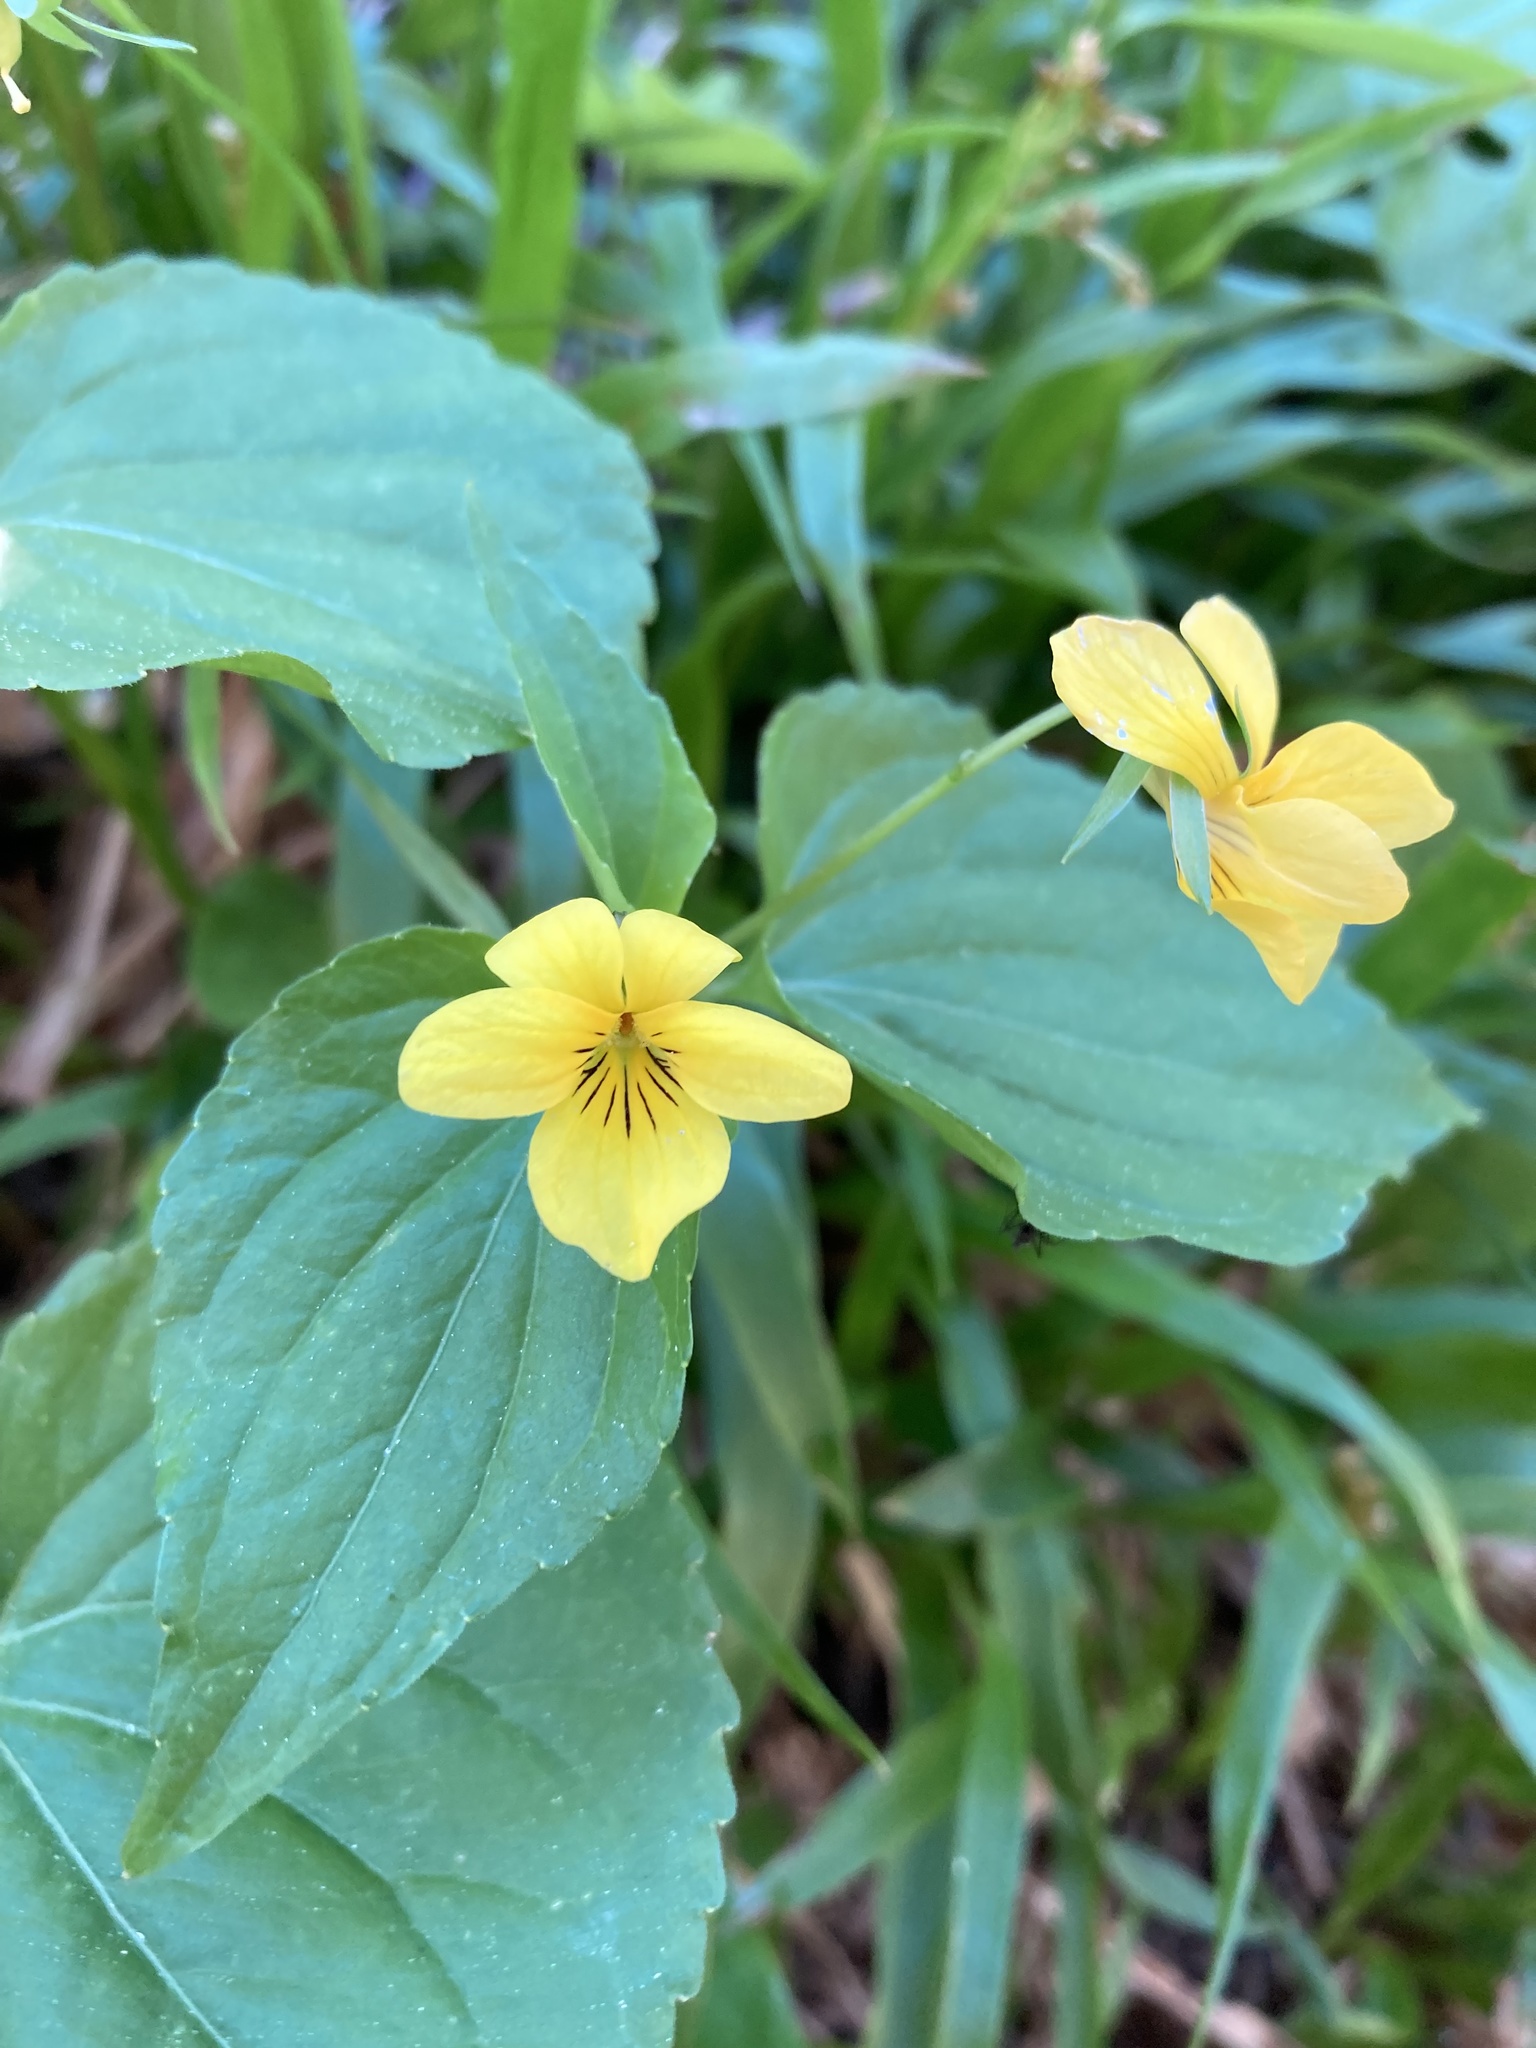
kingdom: Plantae
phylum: Tracheophyta
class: Magnoliopsida
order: Malpighiales
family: Violaceae
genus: Viola
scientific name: Viola glabella
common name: Stream violet
